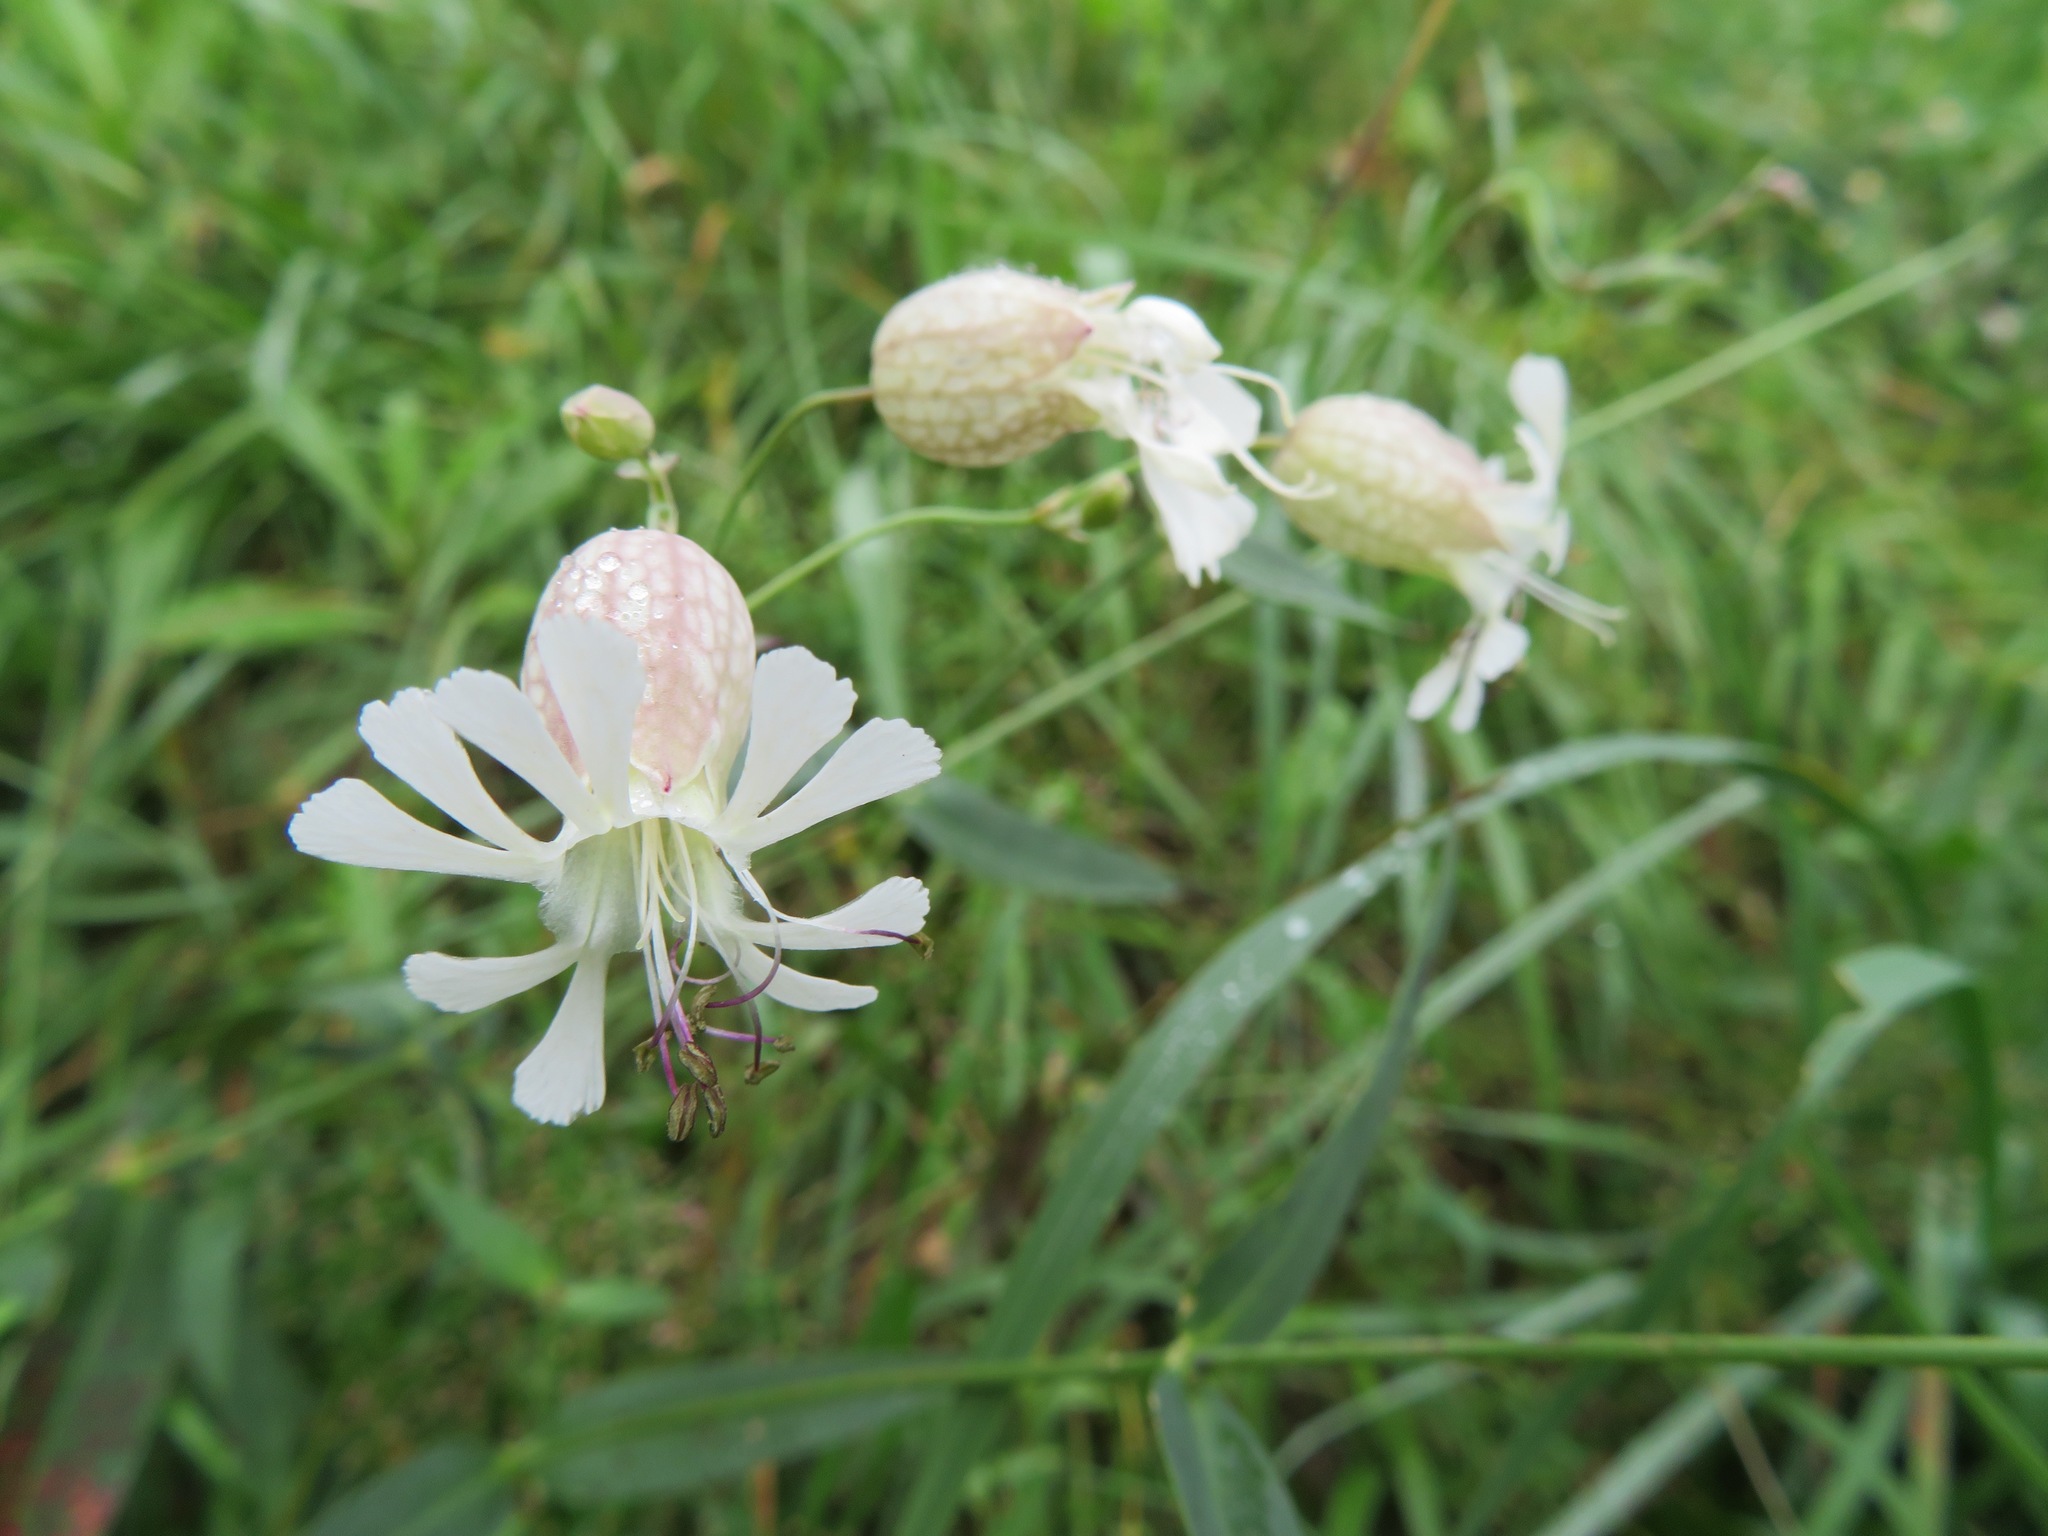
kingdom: Plantae
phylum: Tracheophyta
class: Magnoliopsida
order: Caryophyllales
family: Caryophyllaceae
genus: Silene
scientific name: Silene vulgaris
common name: Bladder campion
